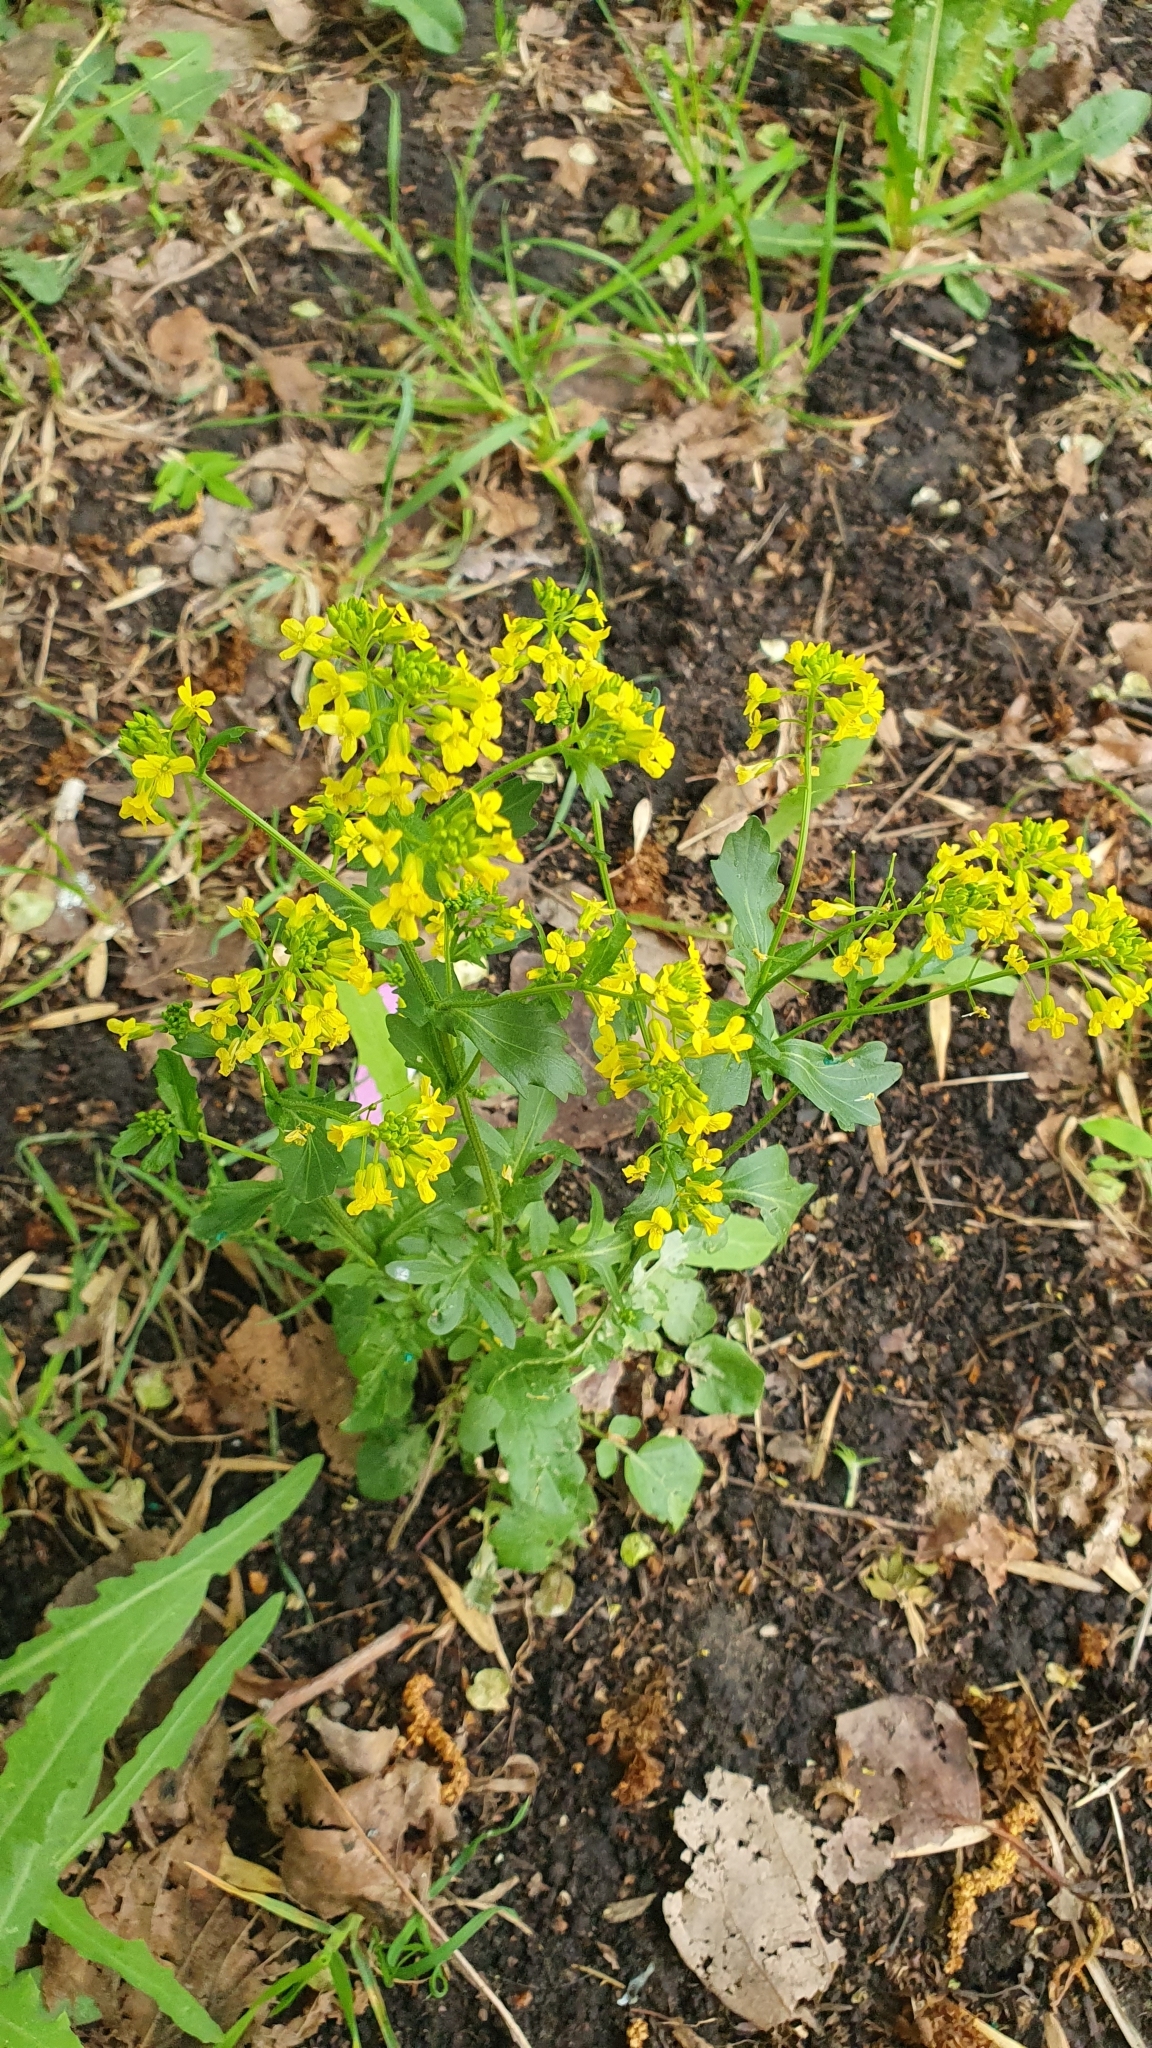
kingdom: Plantae
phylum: Tracheophyta
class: Magnoliopsida
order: Brassicales
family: Brassicaceae
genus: Barbarea
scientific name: Barbarea vulgaris
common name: Cressy-greens
